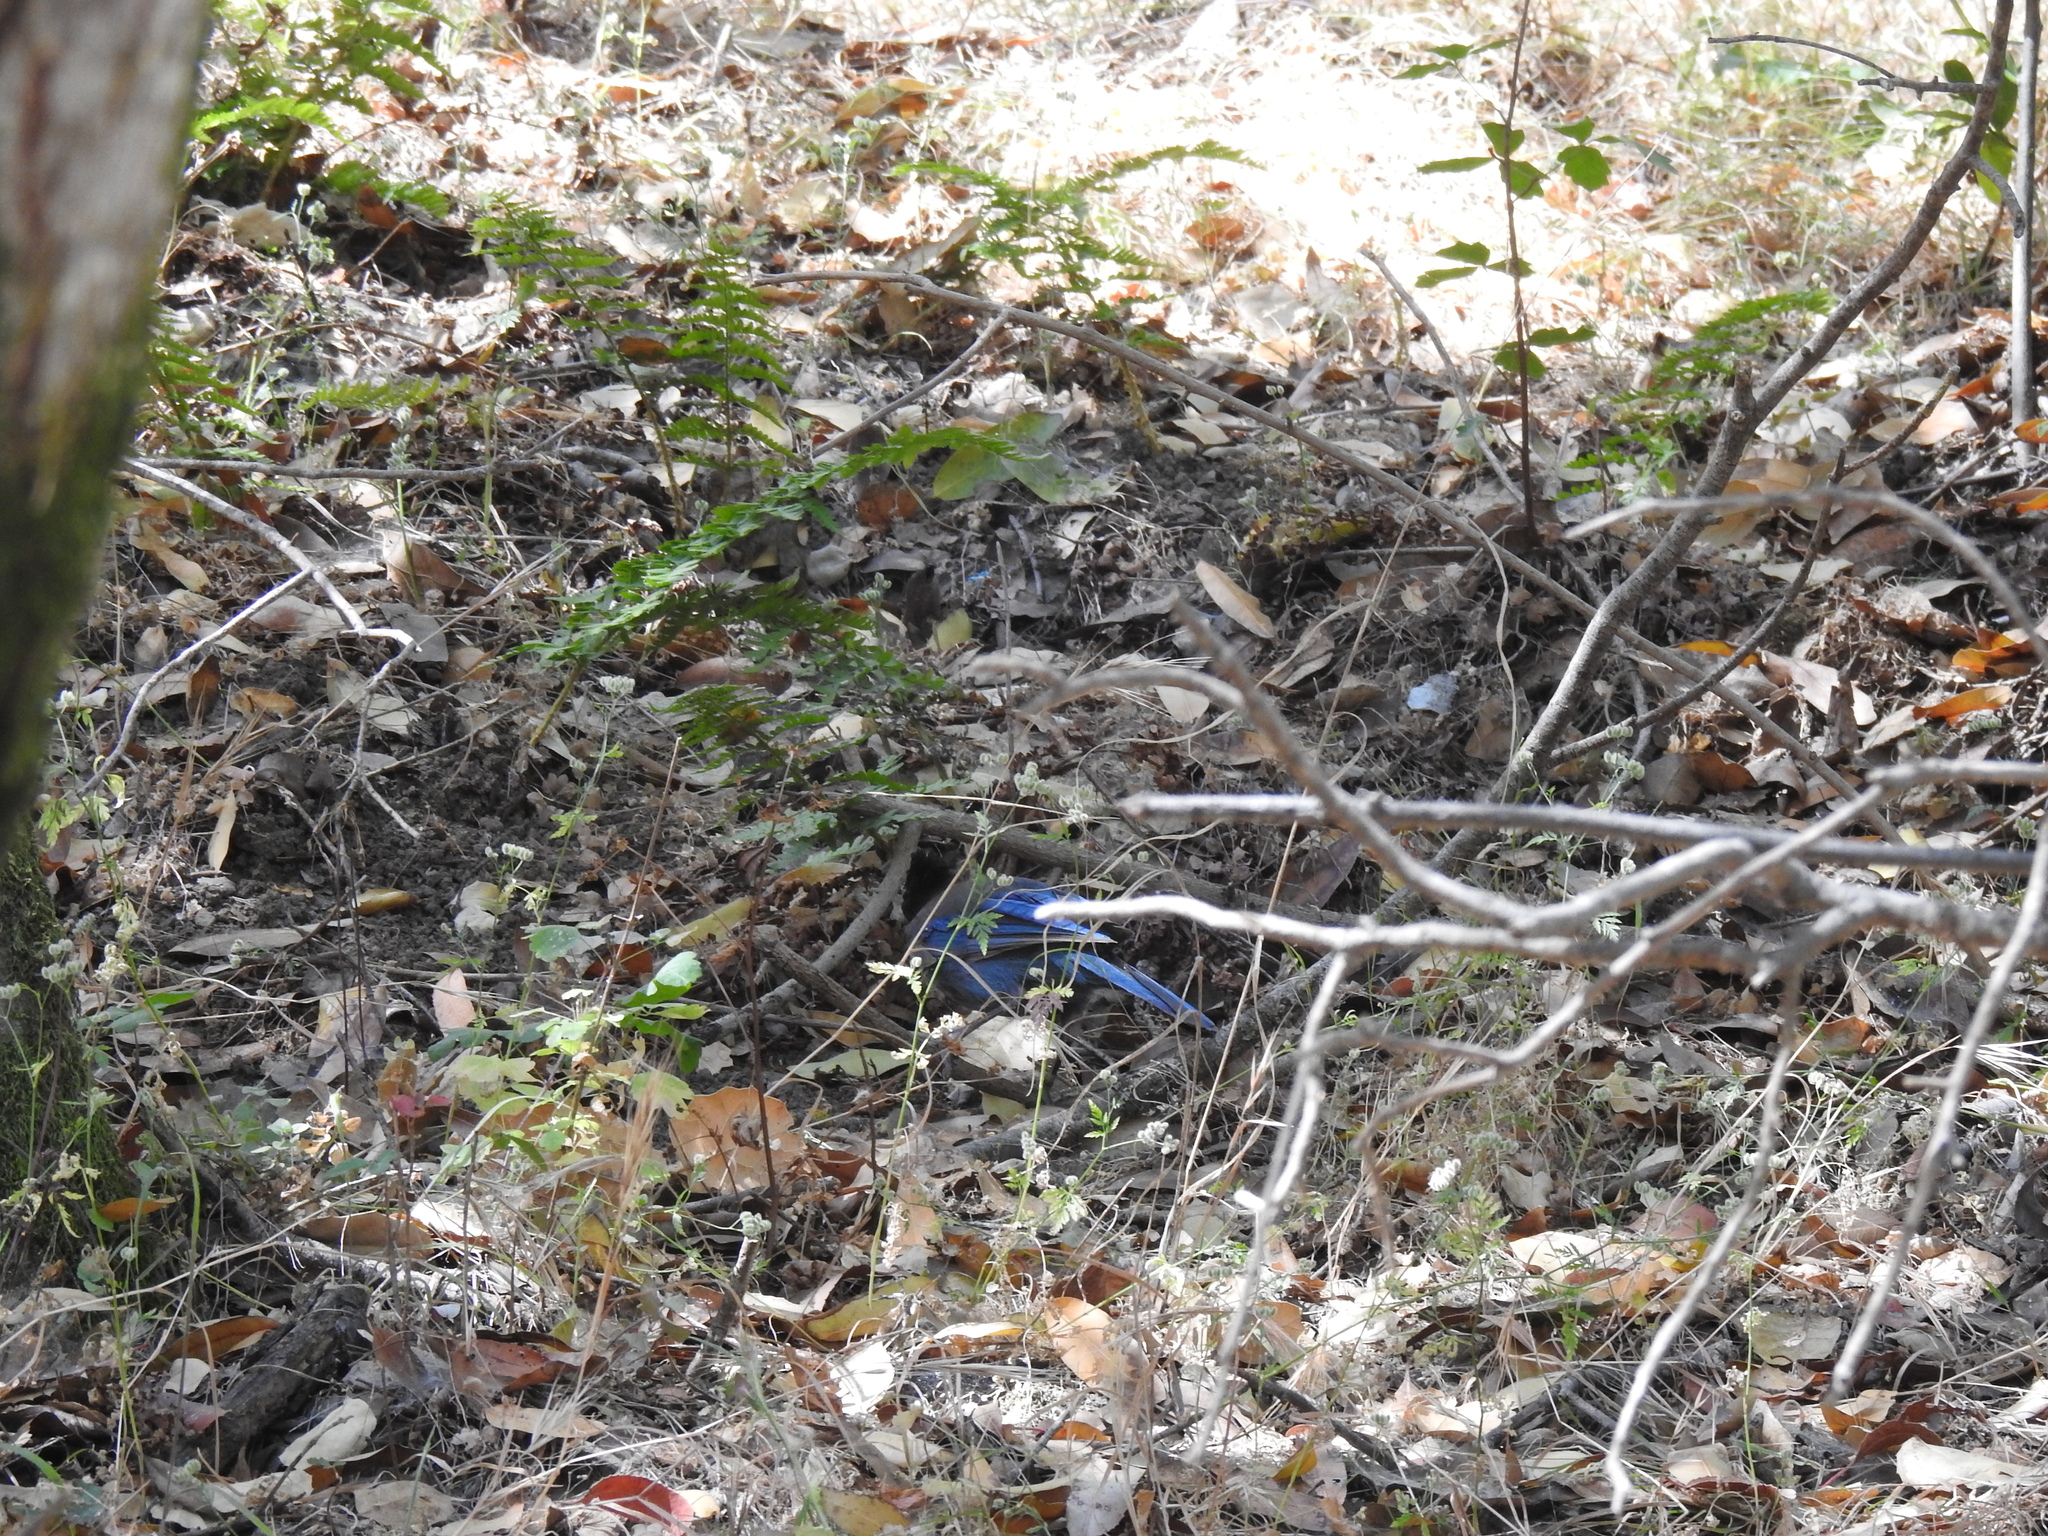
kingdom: Animalia
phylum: Chordata
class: Aves
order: Passeriformes
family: Corvidae
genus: Cyanocitta
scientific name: Cyanocitta stelleri
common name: Steller's jay
